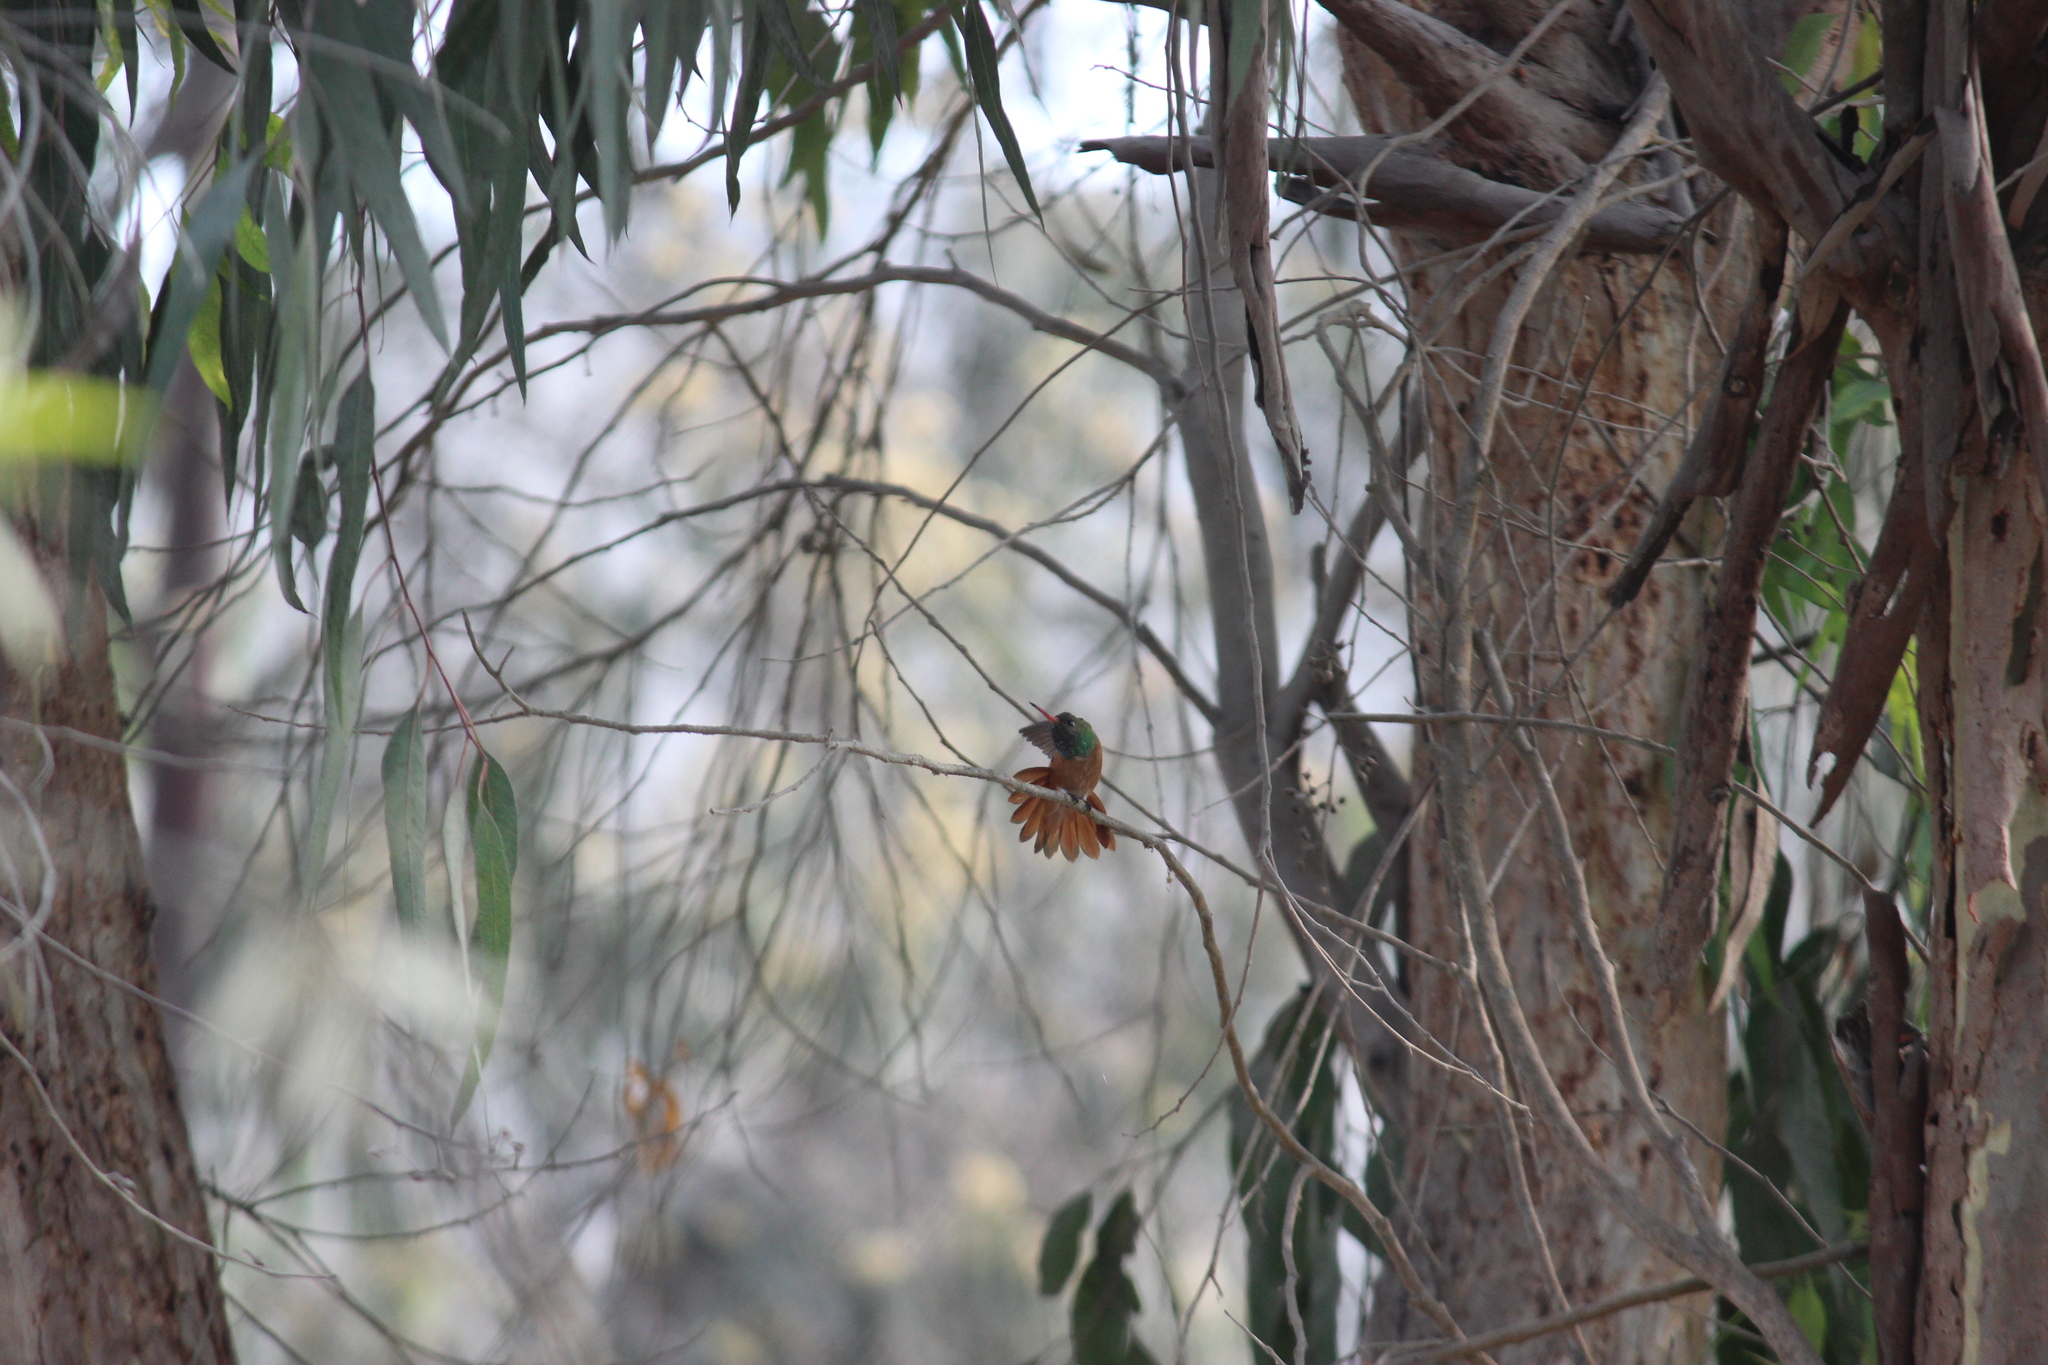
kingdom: Animalia
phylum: Chordata
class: Aves
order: Apodiformes
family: Trochilidae
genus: Amazilis
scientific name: Amazilis amazilia
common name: Amazilia hummingbird
